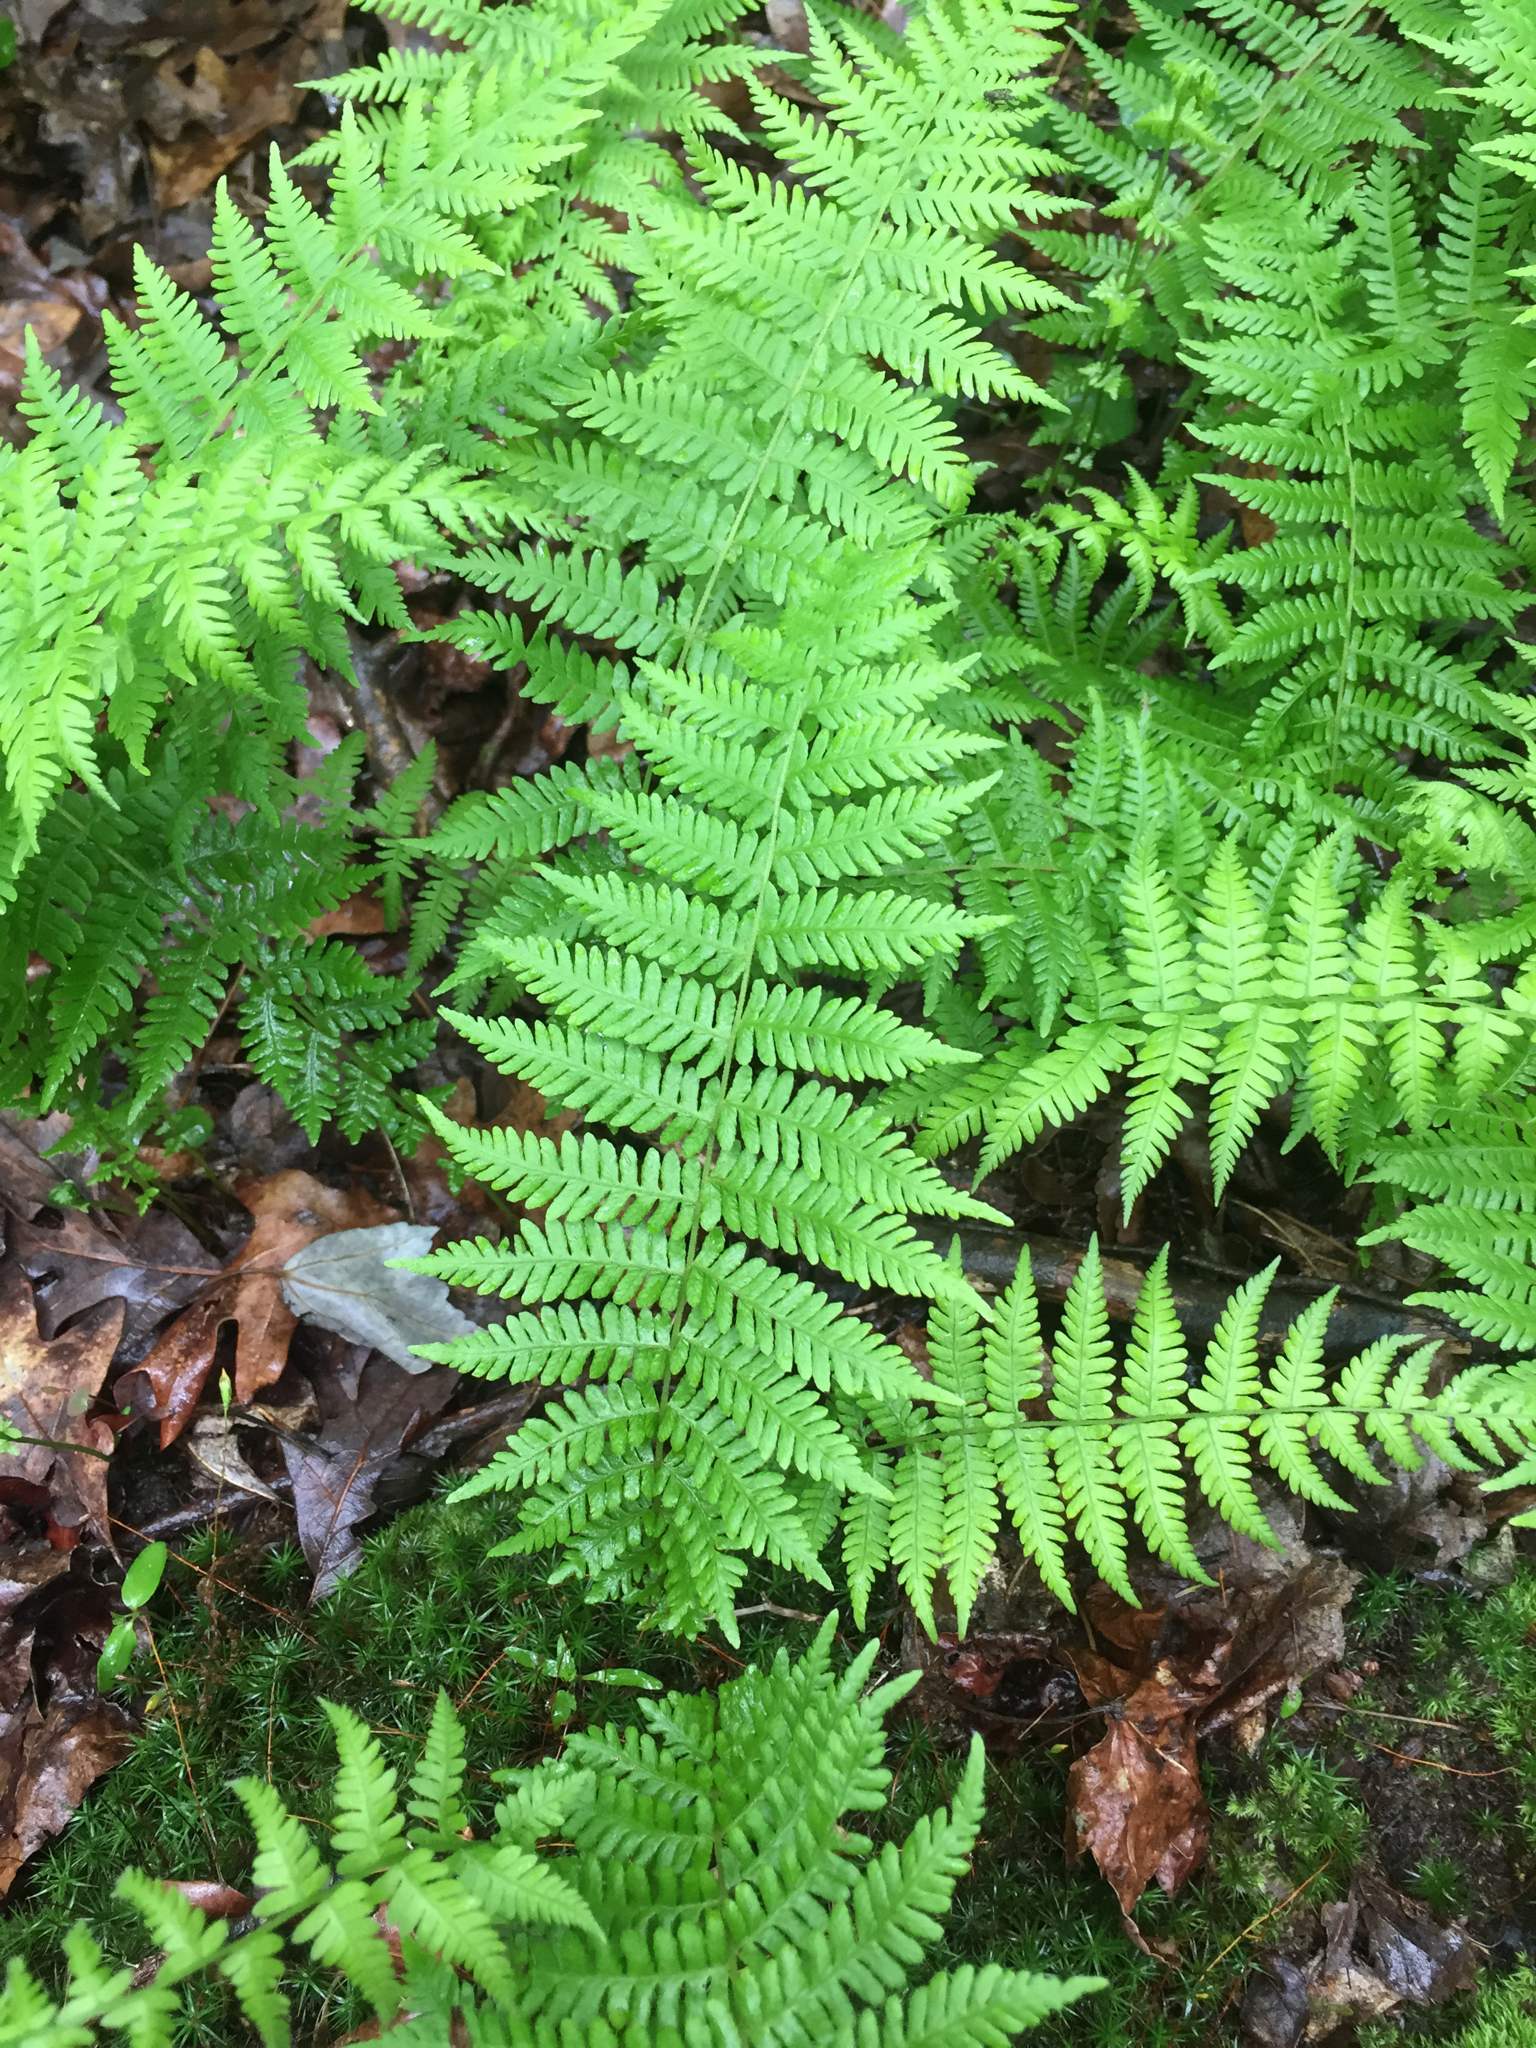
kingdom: Plantae
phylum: Tracheophyta
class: Polypodiopsida
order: Polypodiales
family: Thelypteridaceae
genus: Amauropelta
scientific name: Amauropelta noveboracensis
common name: New york fern
